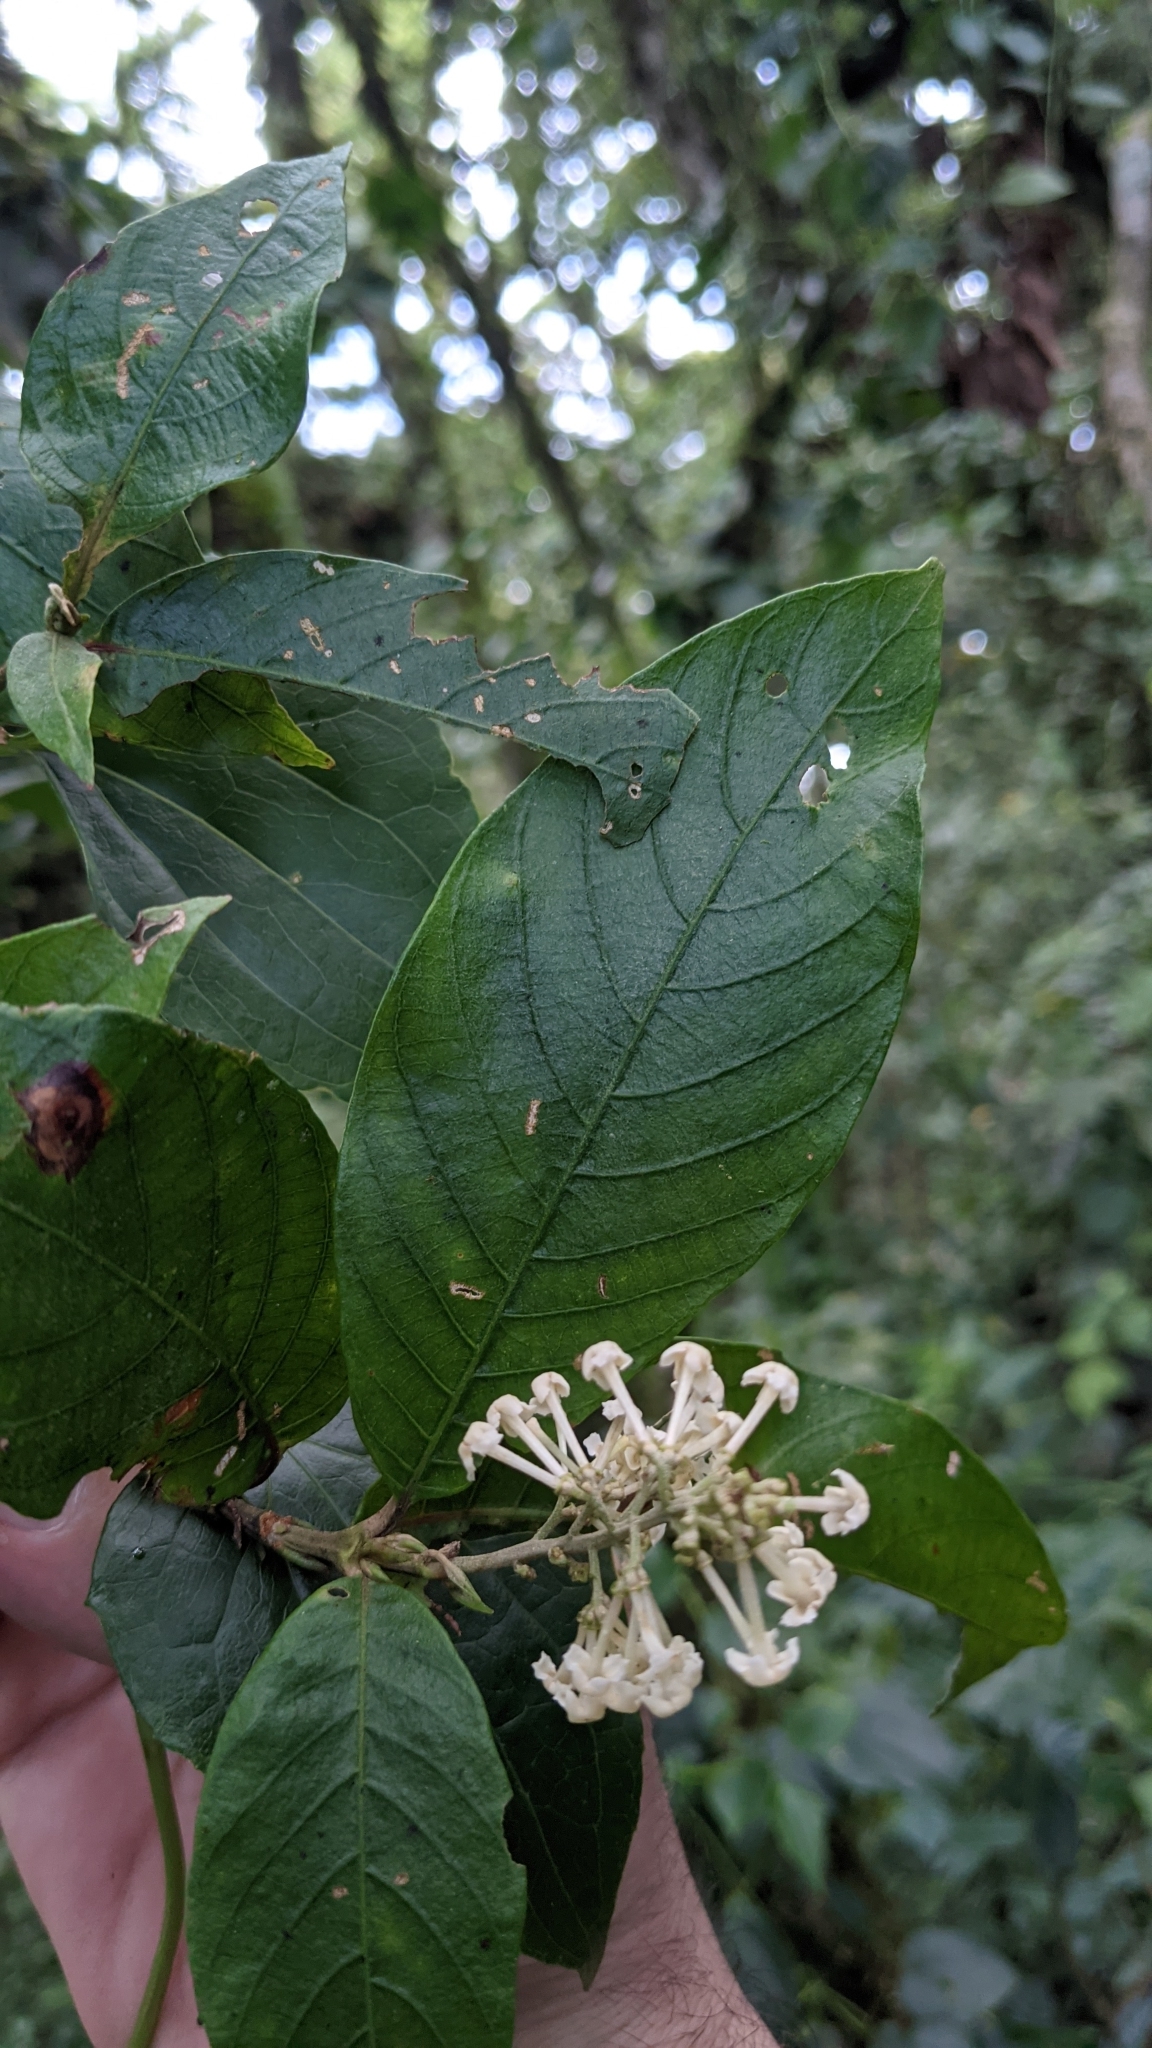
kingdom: Plantae
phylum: Tracheophyta
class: Magnoliopsida
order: Gentianales
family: Rubiaceae
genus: Arachnothryx
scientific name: Arachnothryx buddleioides
